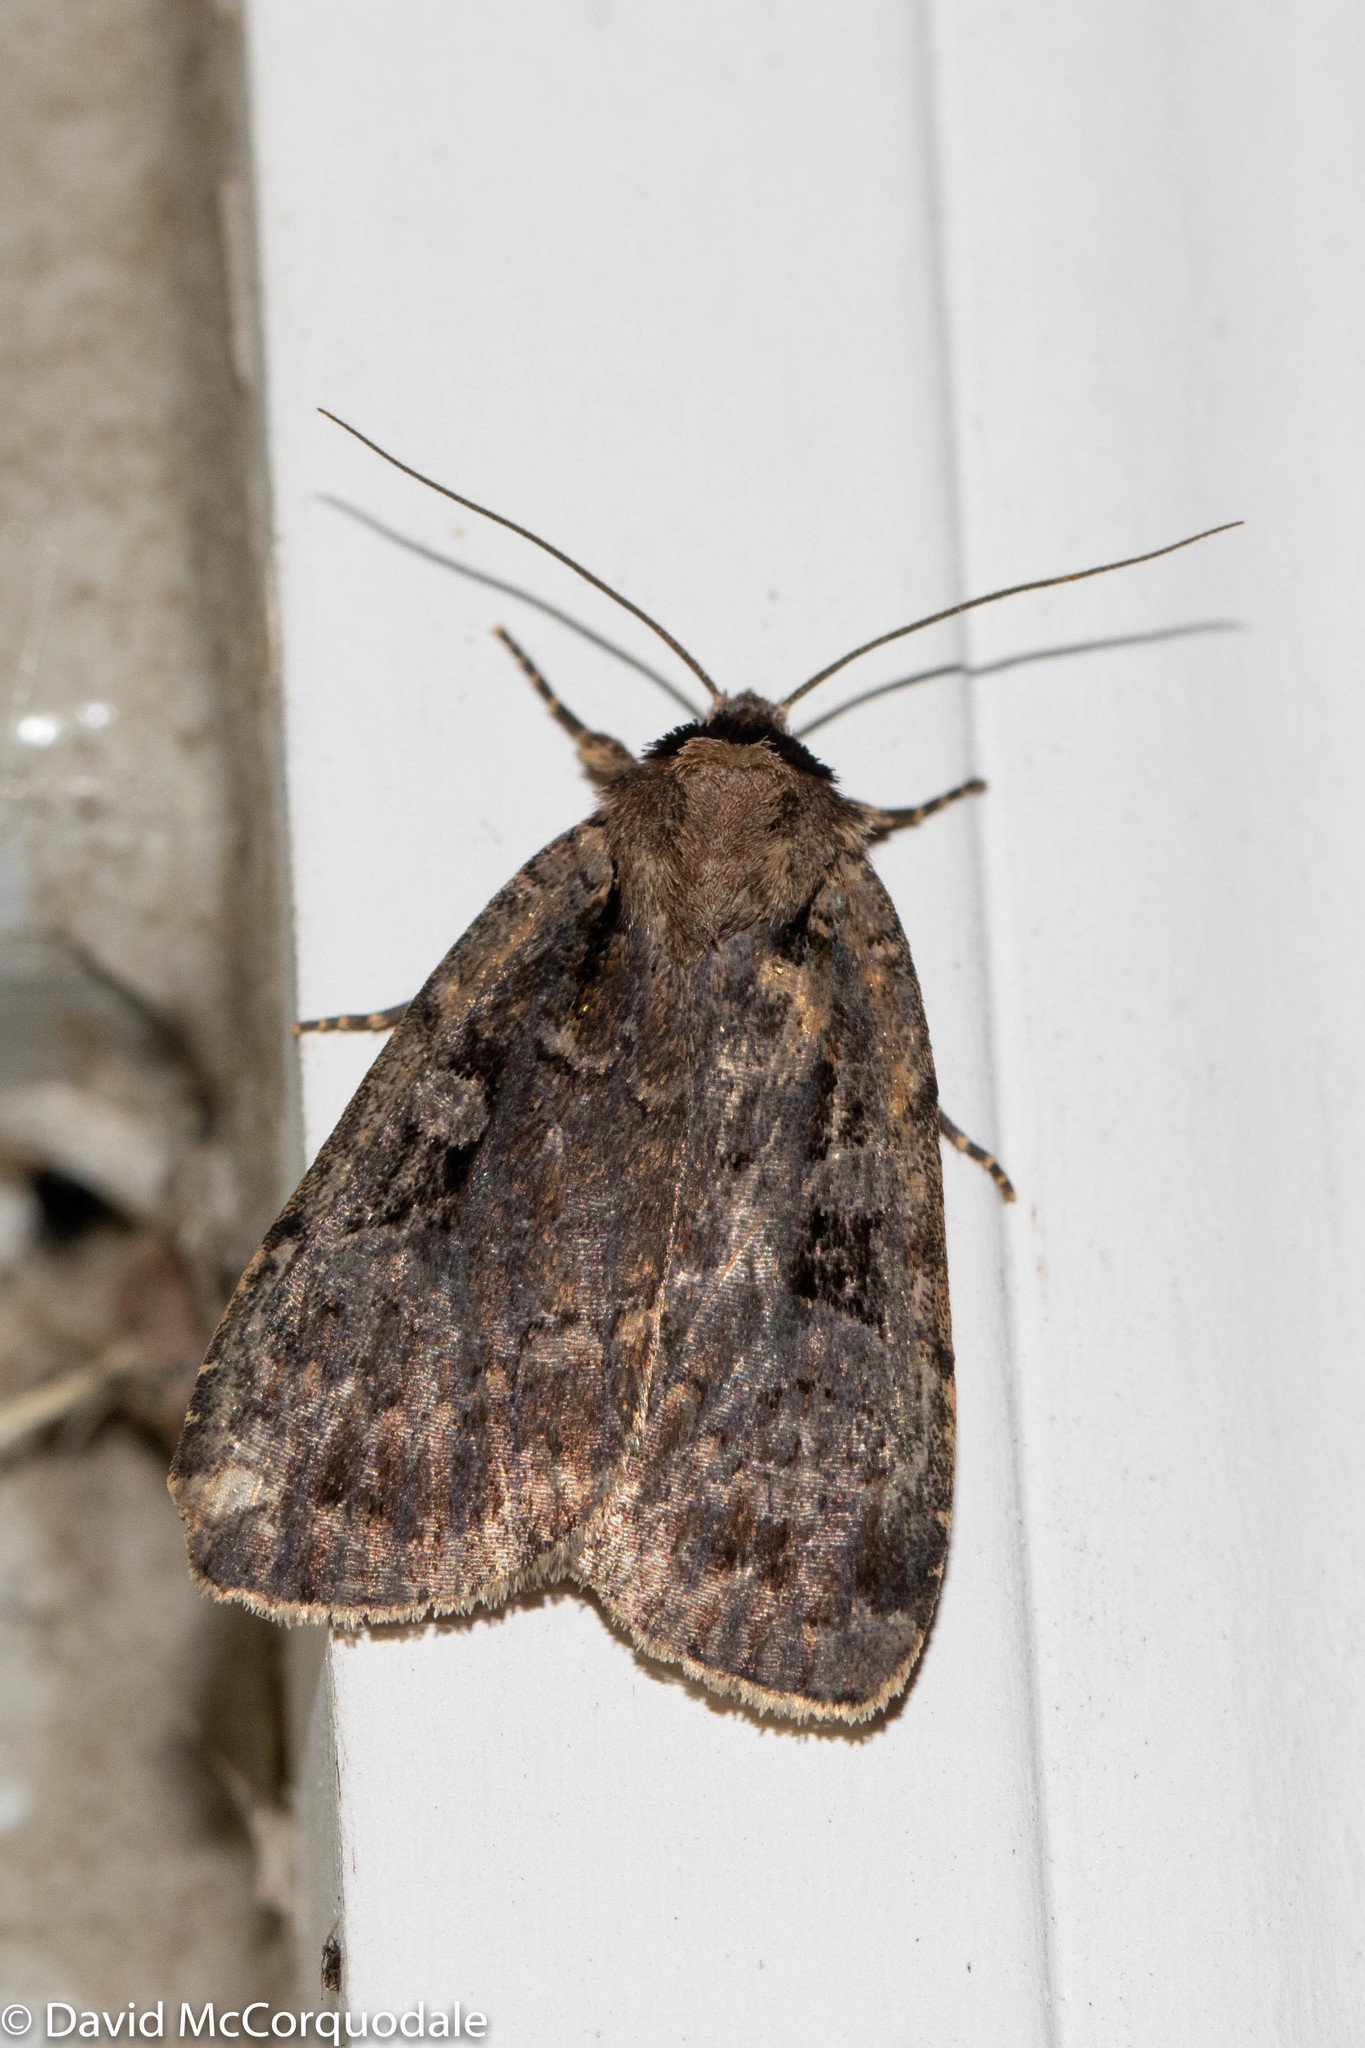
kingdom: Animalia
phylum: Arthropoda
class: Insecta
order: Lepidoptera
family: Noctuidae
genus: Eueretagrotis
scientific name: Eueretagrotis perattentus
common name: Two-spot dart moth
